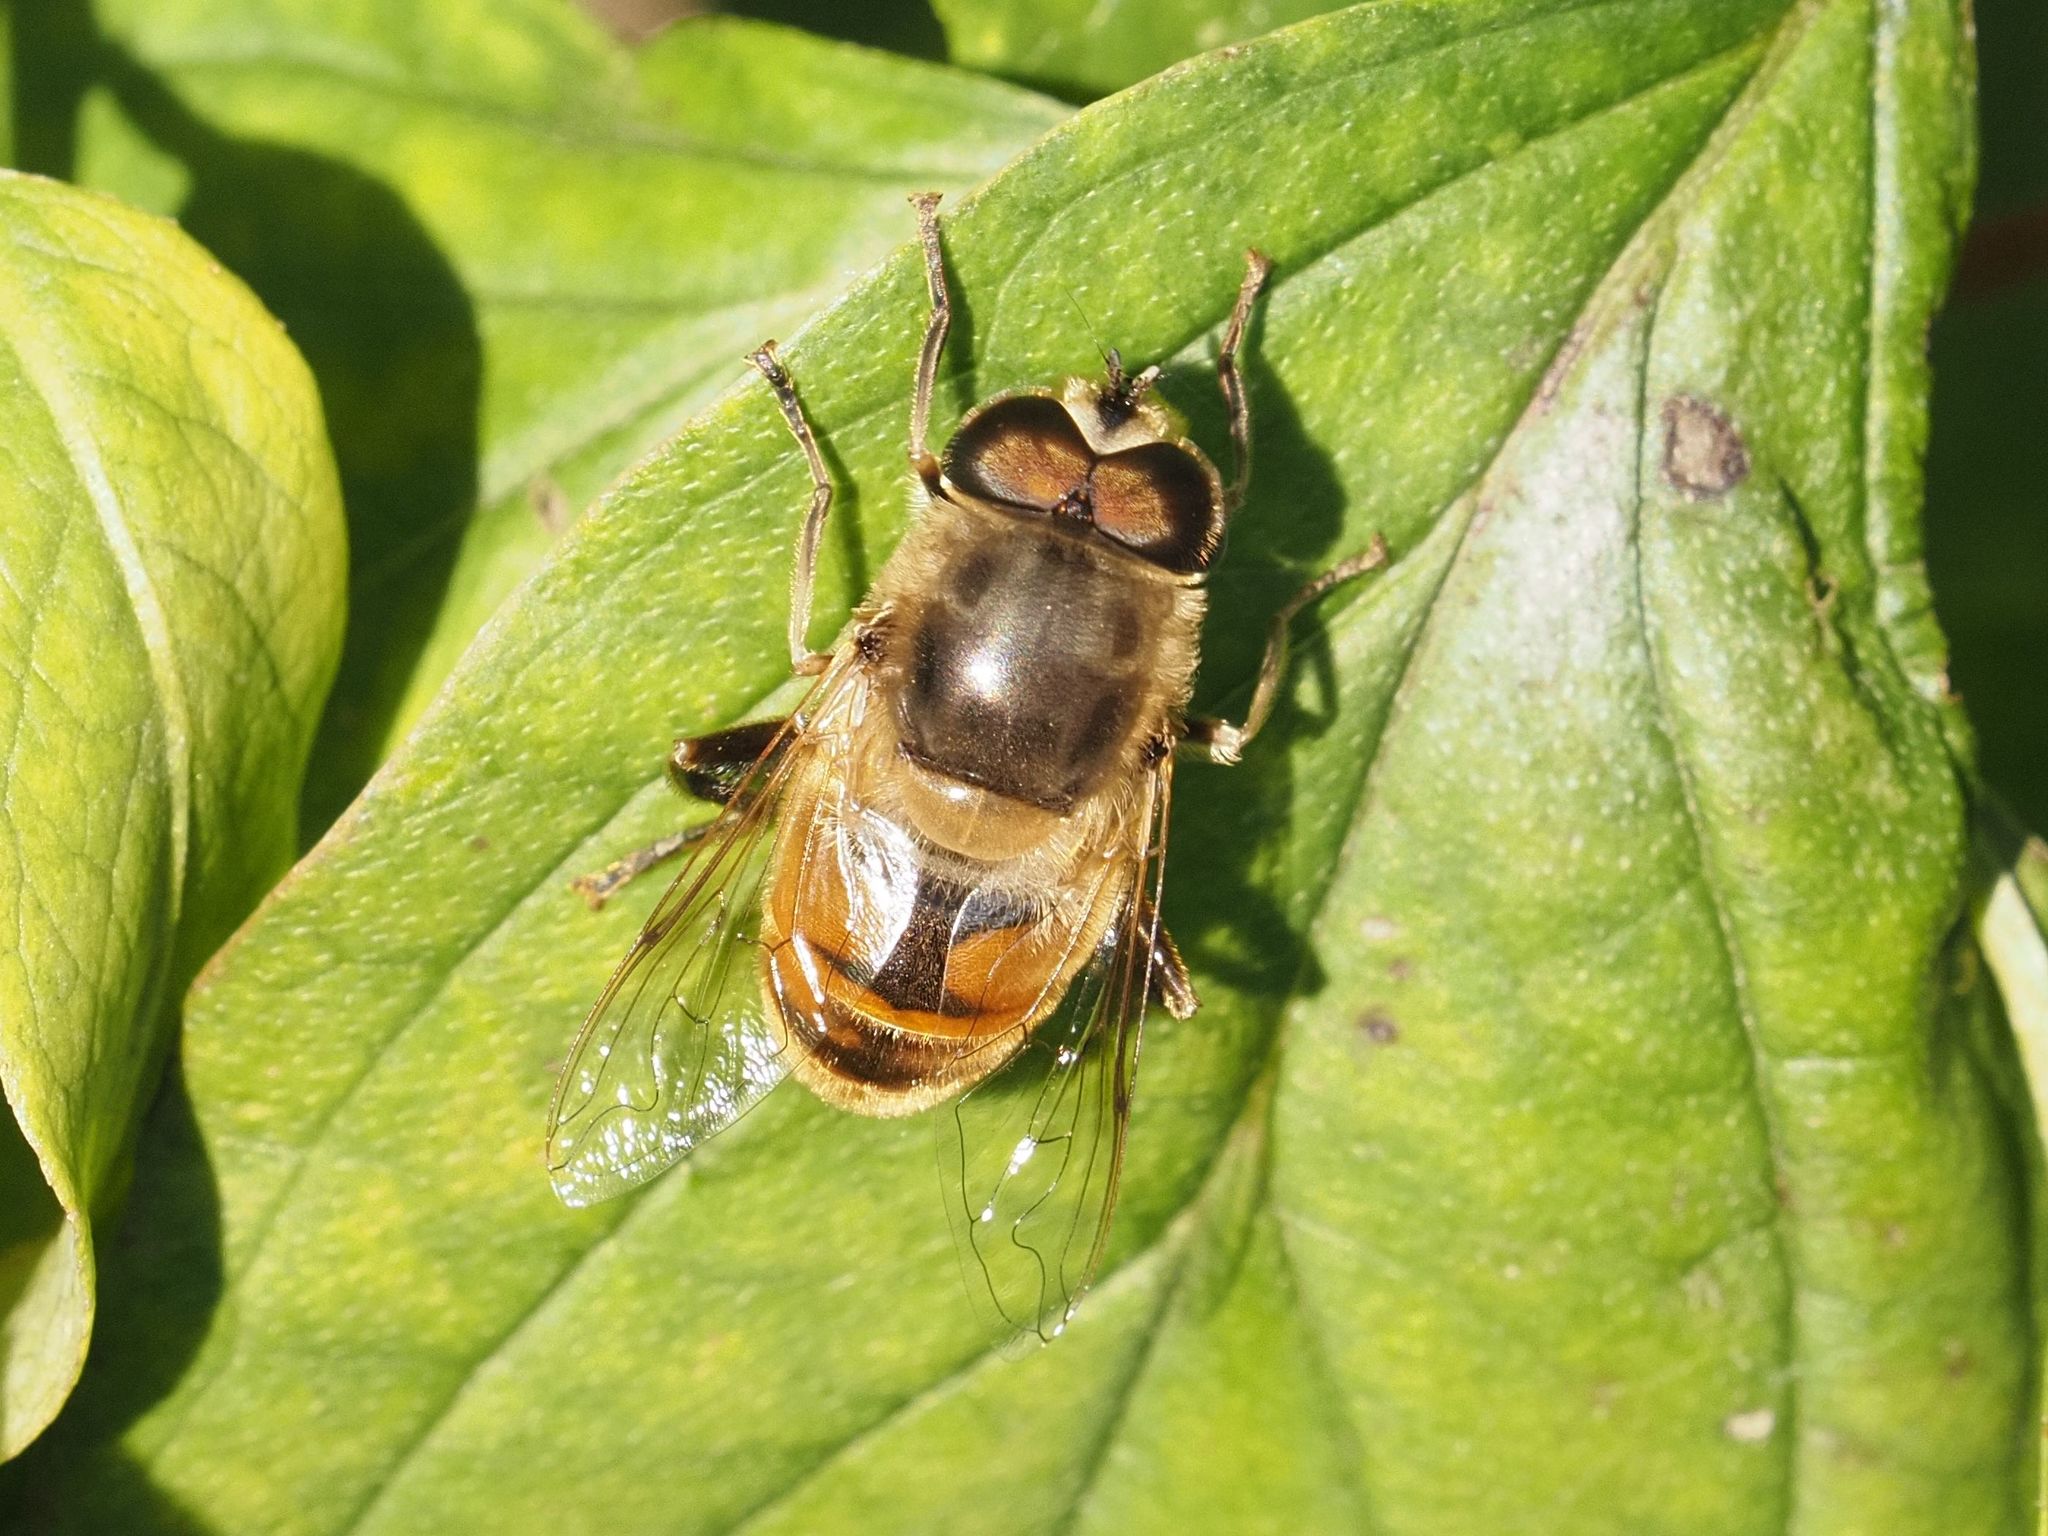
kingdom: Animalia
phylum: Arthropoda
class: Insecta
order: Diptera
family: Syrphidae
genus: Eristalis
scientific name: Eristalis tenax
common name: Drone fly
